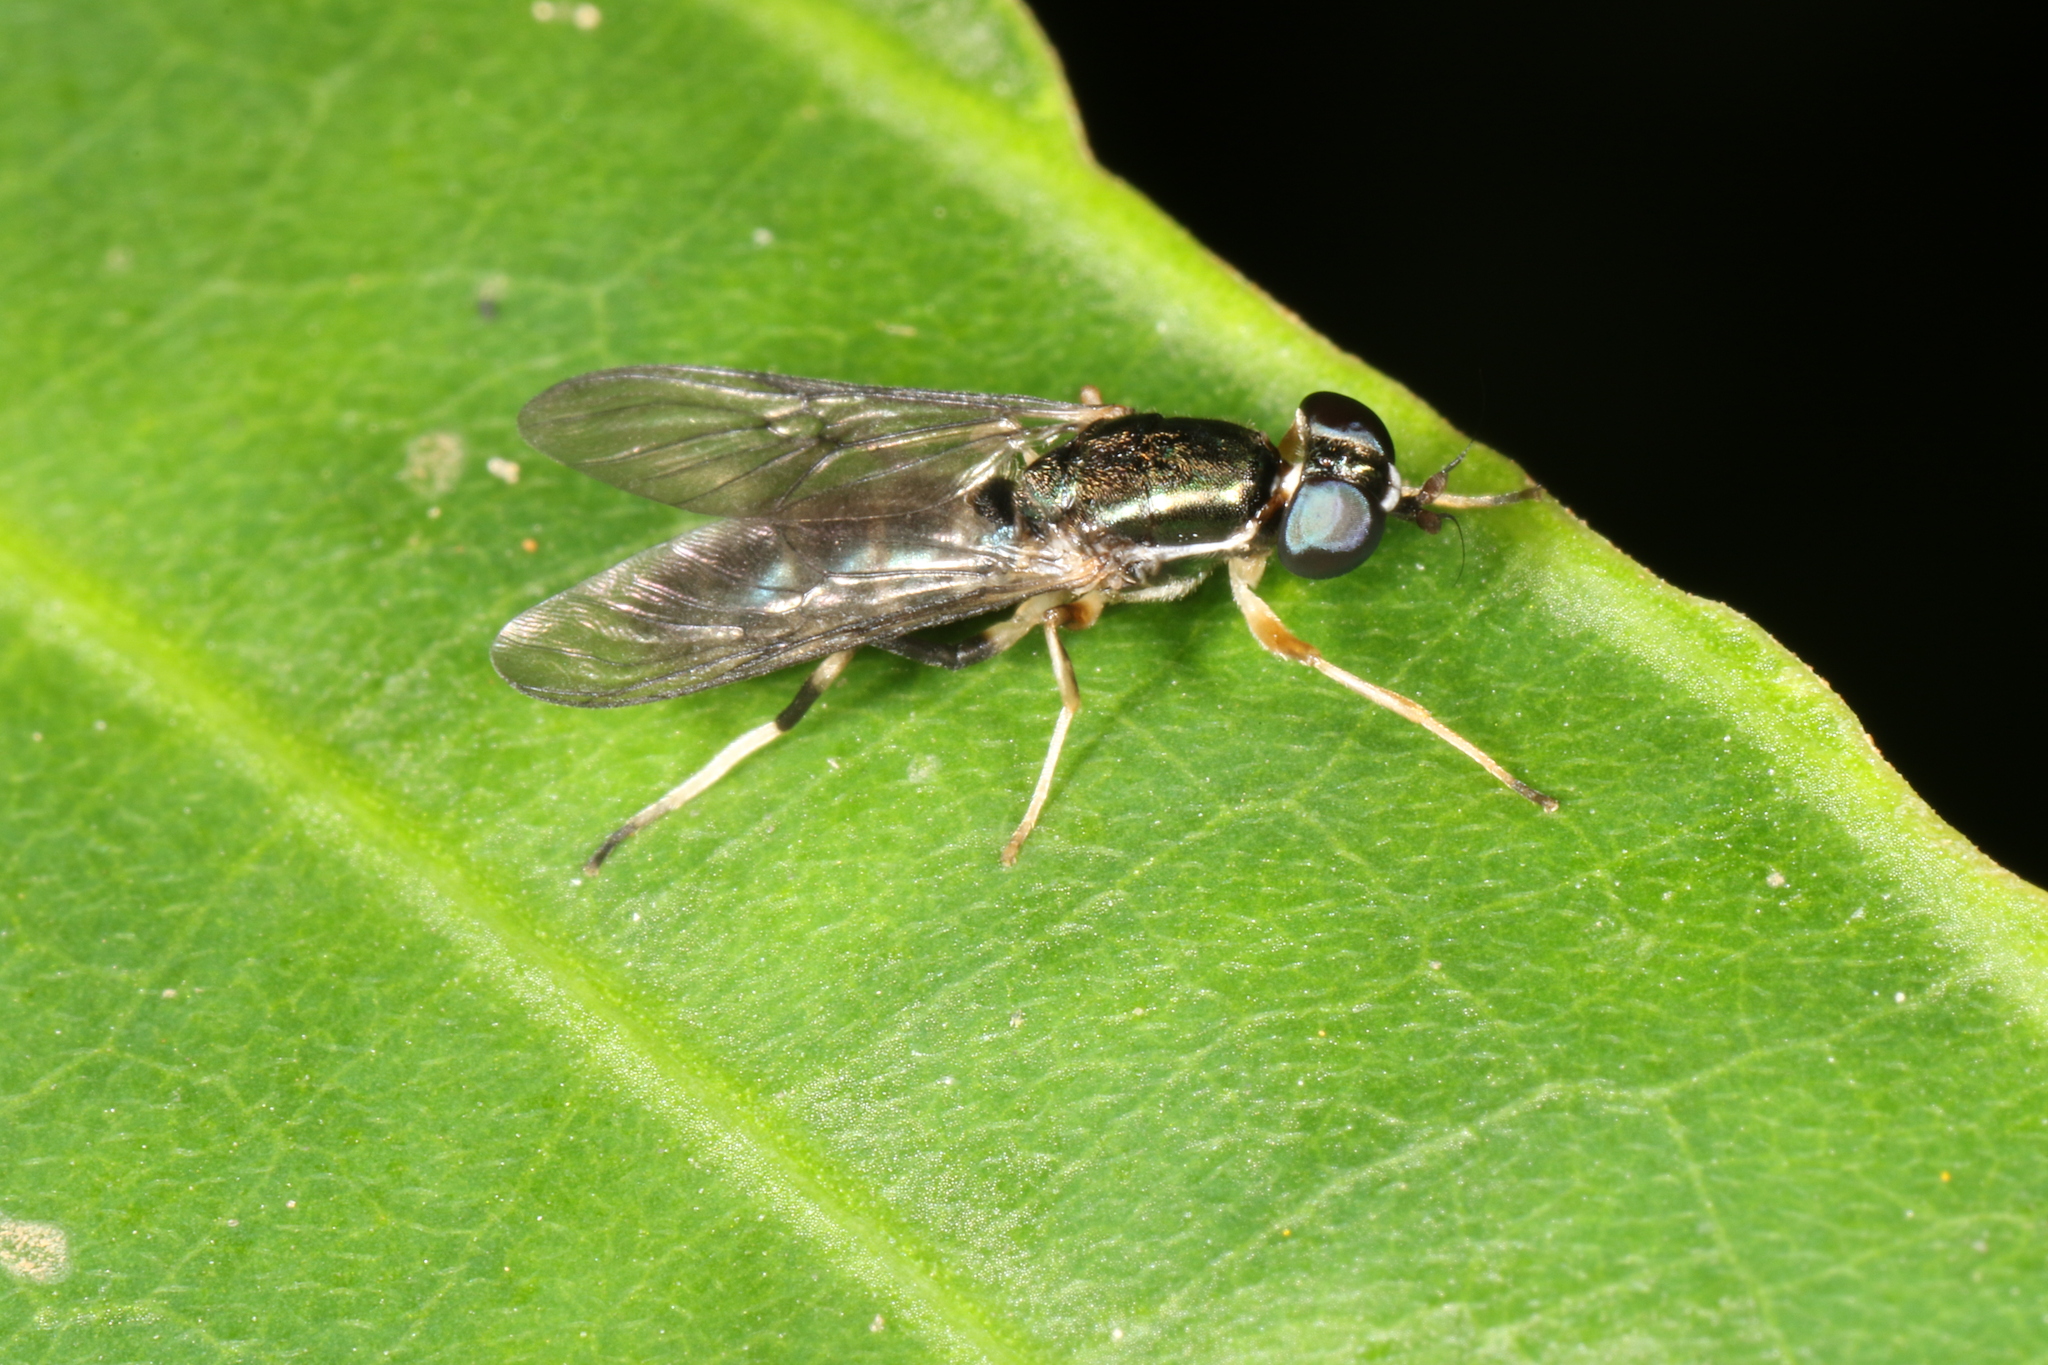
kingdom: Animalia
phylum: Arthropoda
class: Insecta
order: Diptera
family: Stratiomyidae
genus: Merosargus
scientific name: Merosargus gracilis
